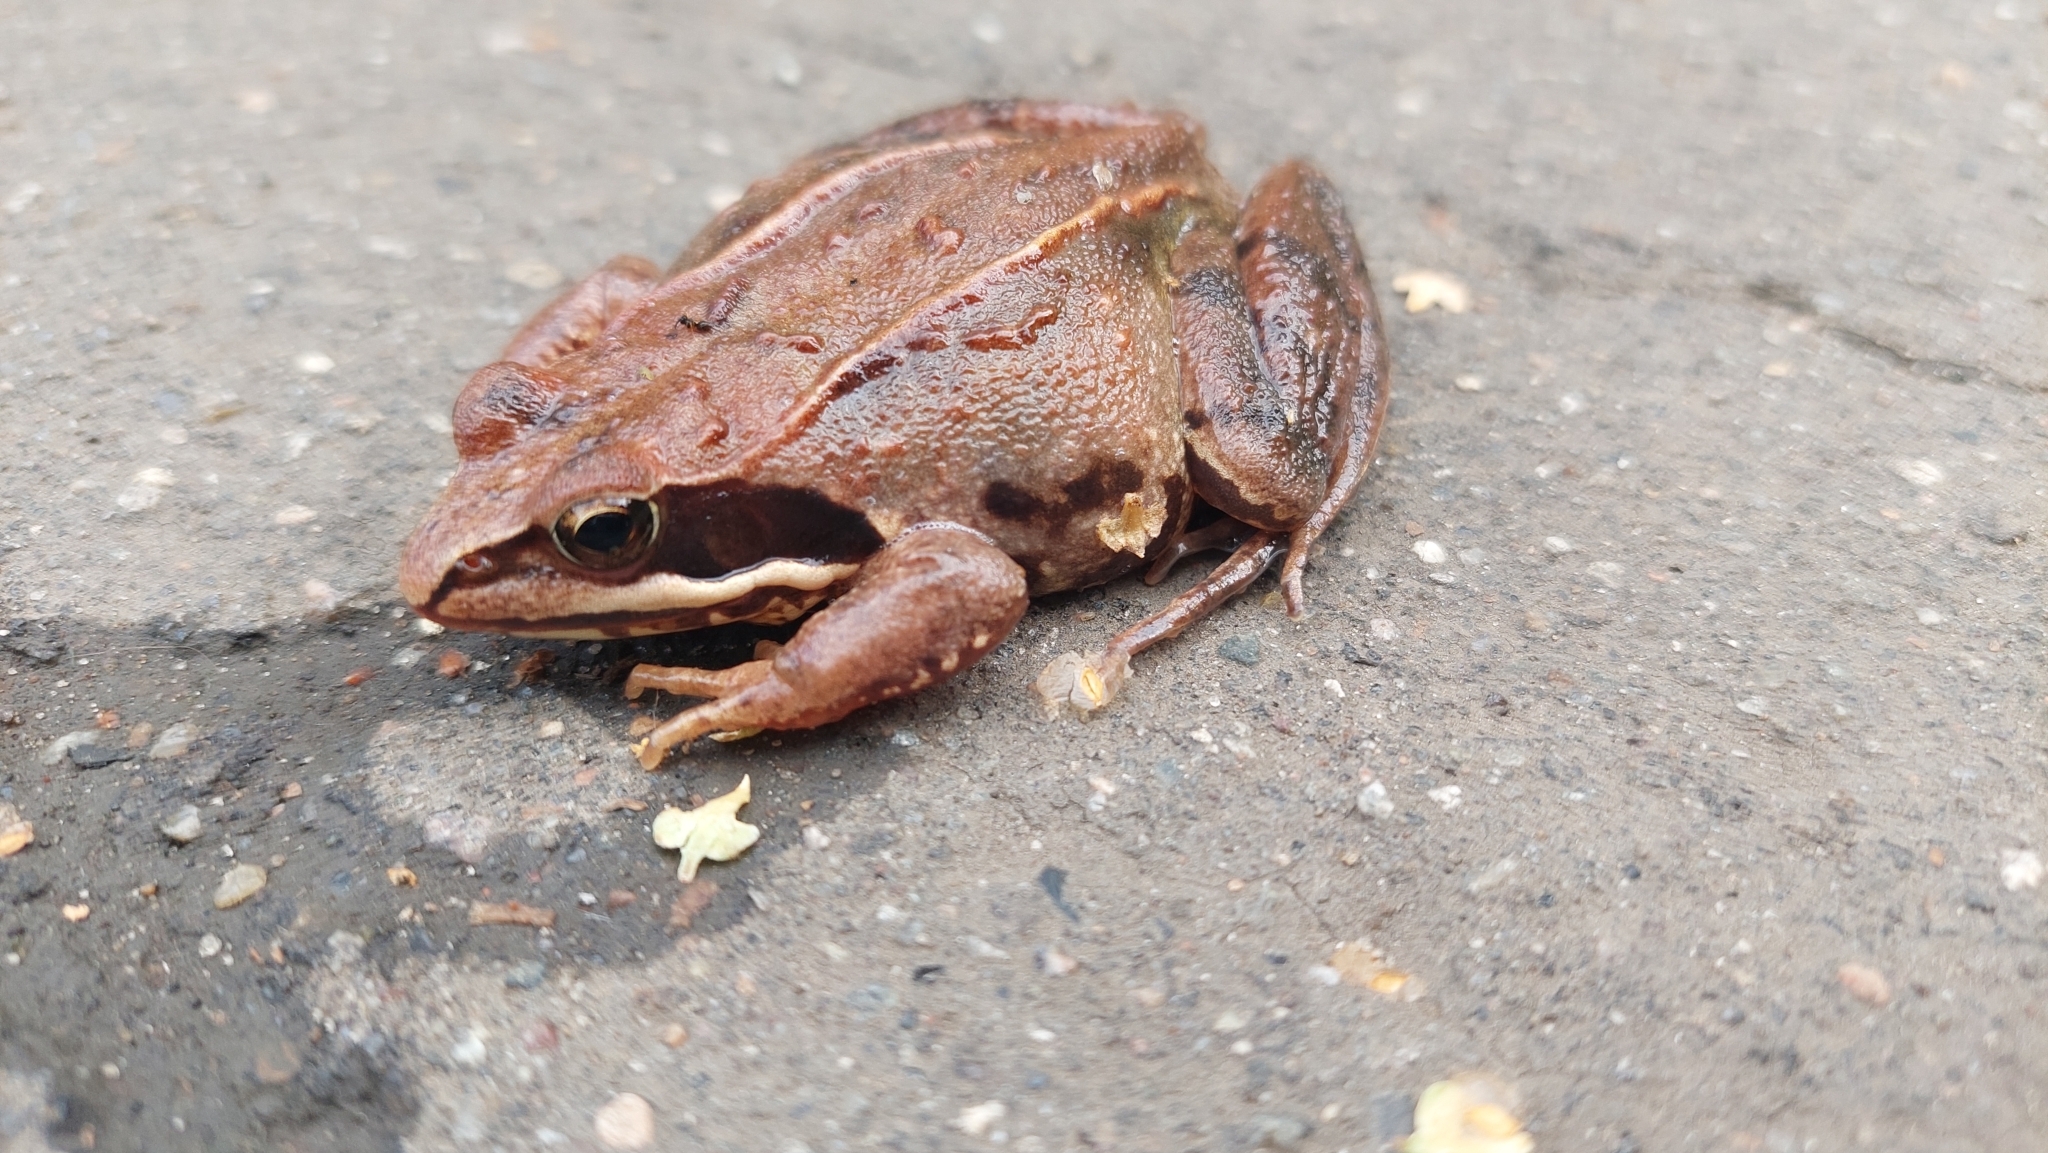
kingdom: Animalia
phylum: Chordata
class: Amphibia
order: Anura
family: Ranidae
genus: Rana
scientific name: Rana arvalis
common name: Moor frog
